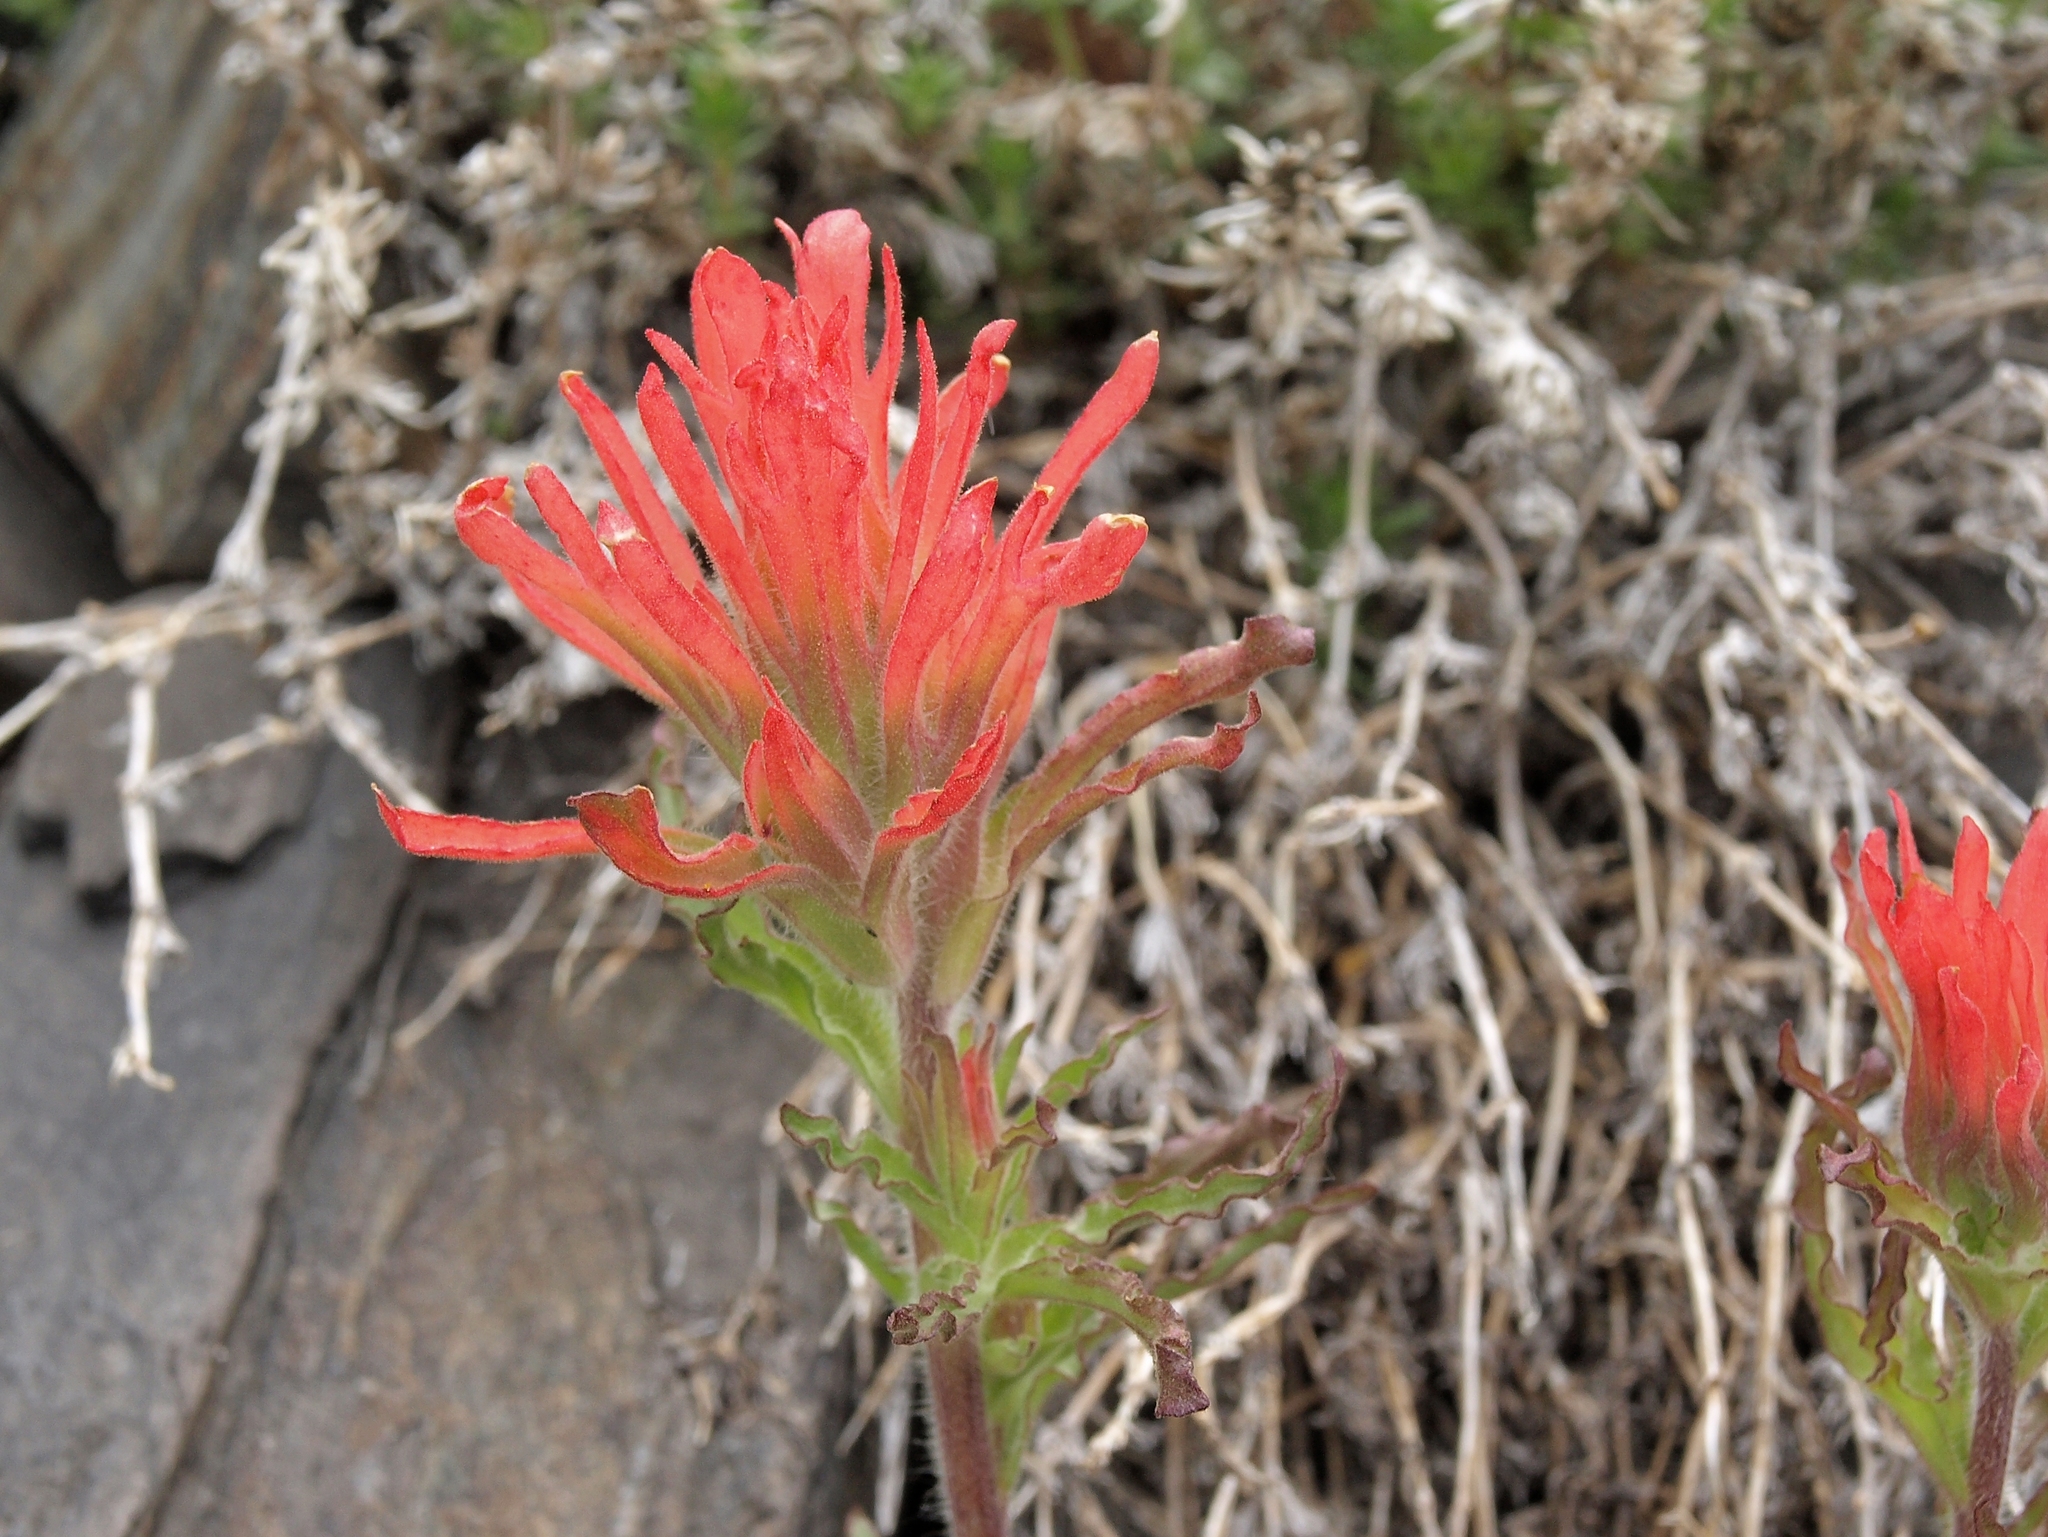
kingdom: Plantae
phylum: Tracheophyta
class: Magnoliopsida
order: Lamiales
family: Orobanchaceae
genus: Castilleja
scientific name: Castilleja applegatei
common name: Wavy-leaf paintbrush
